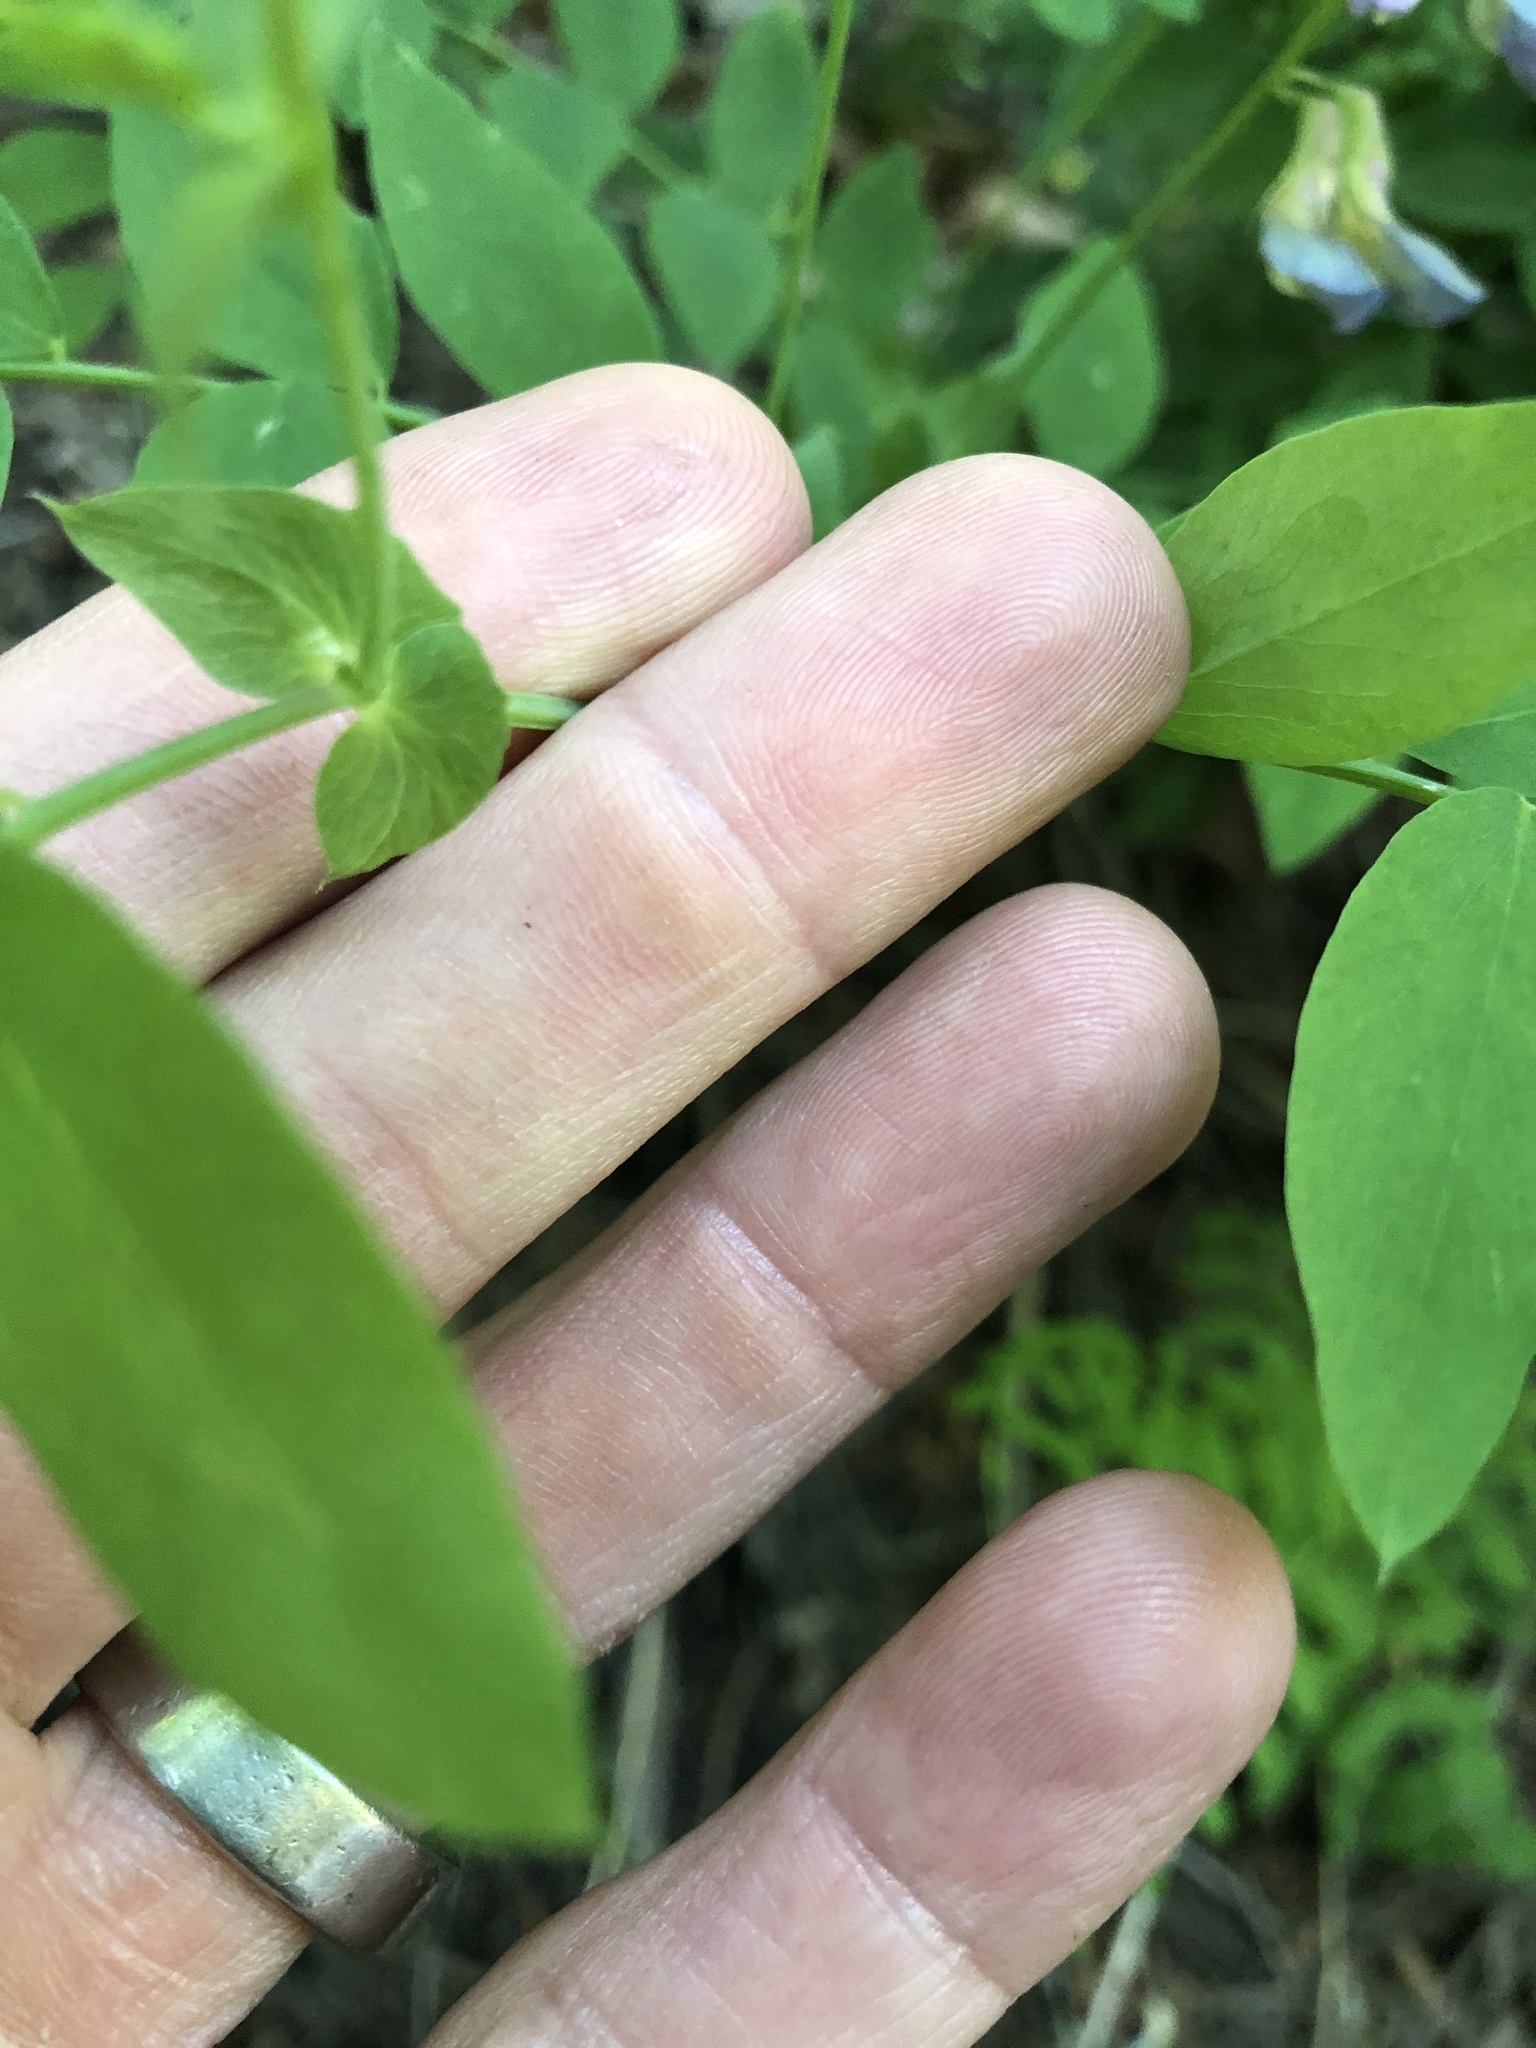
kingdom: Plantae
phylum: Tracheophyta
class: Magnoliopsida
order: Fabales
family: Fabaceae
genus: Lathyrus
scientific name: Lathyrus polyphyllus
